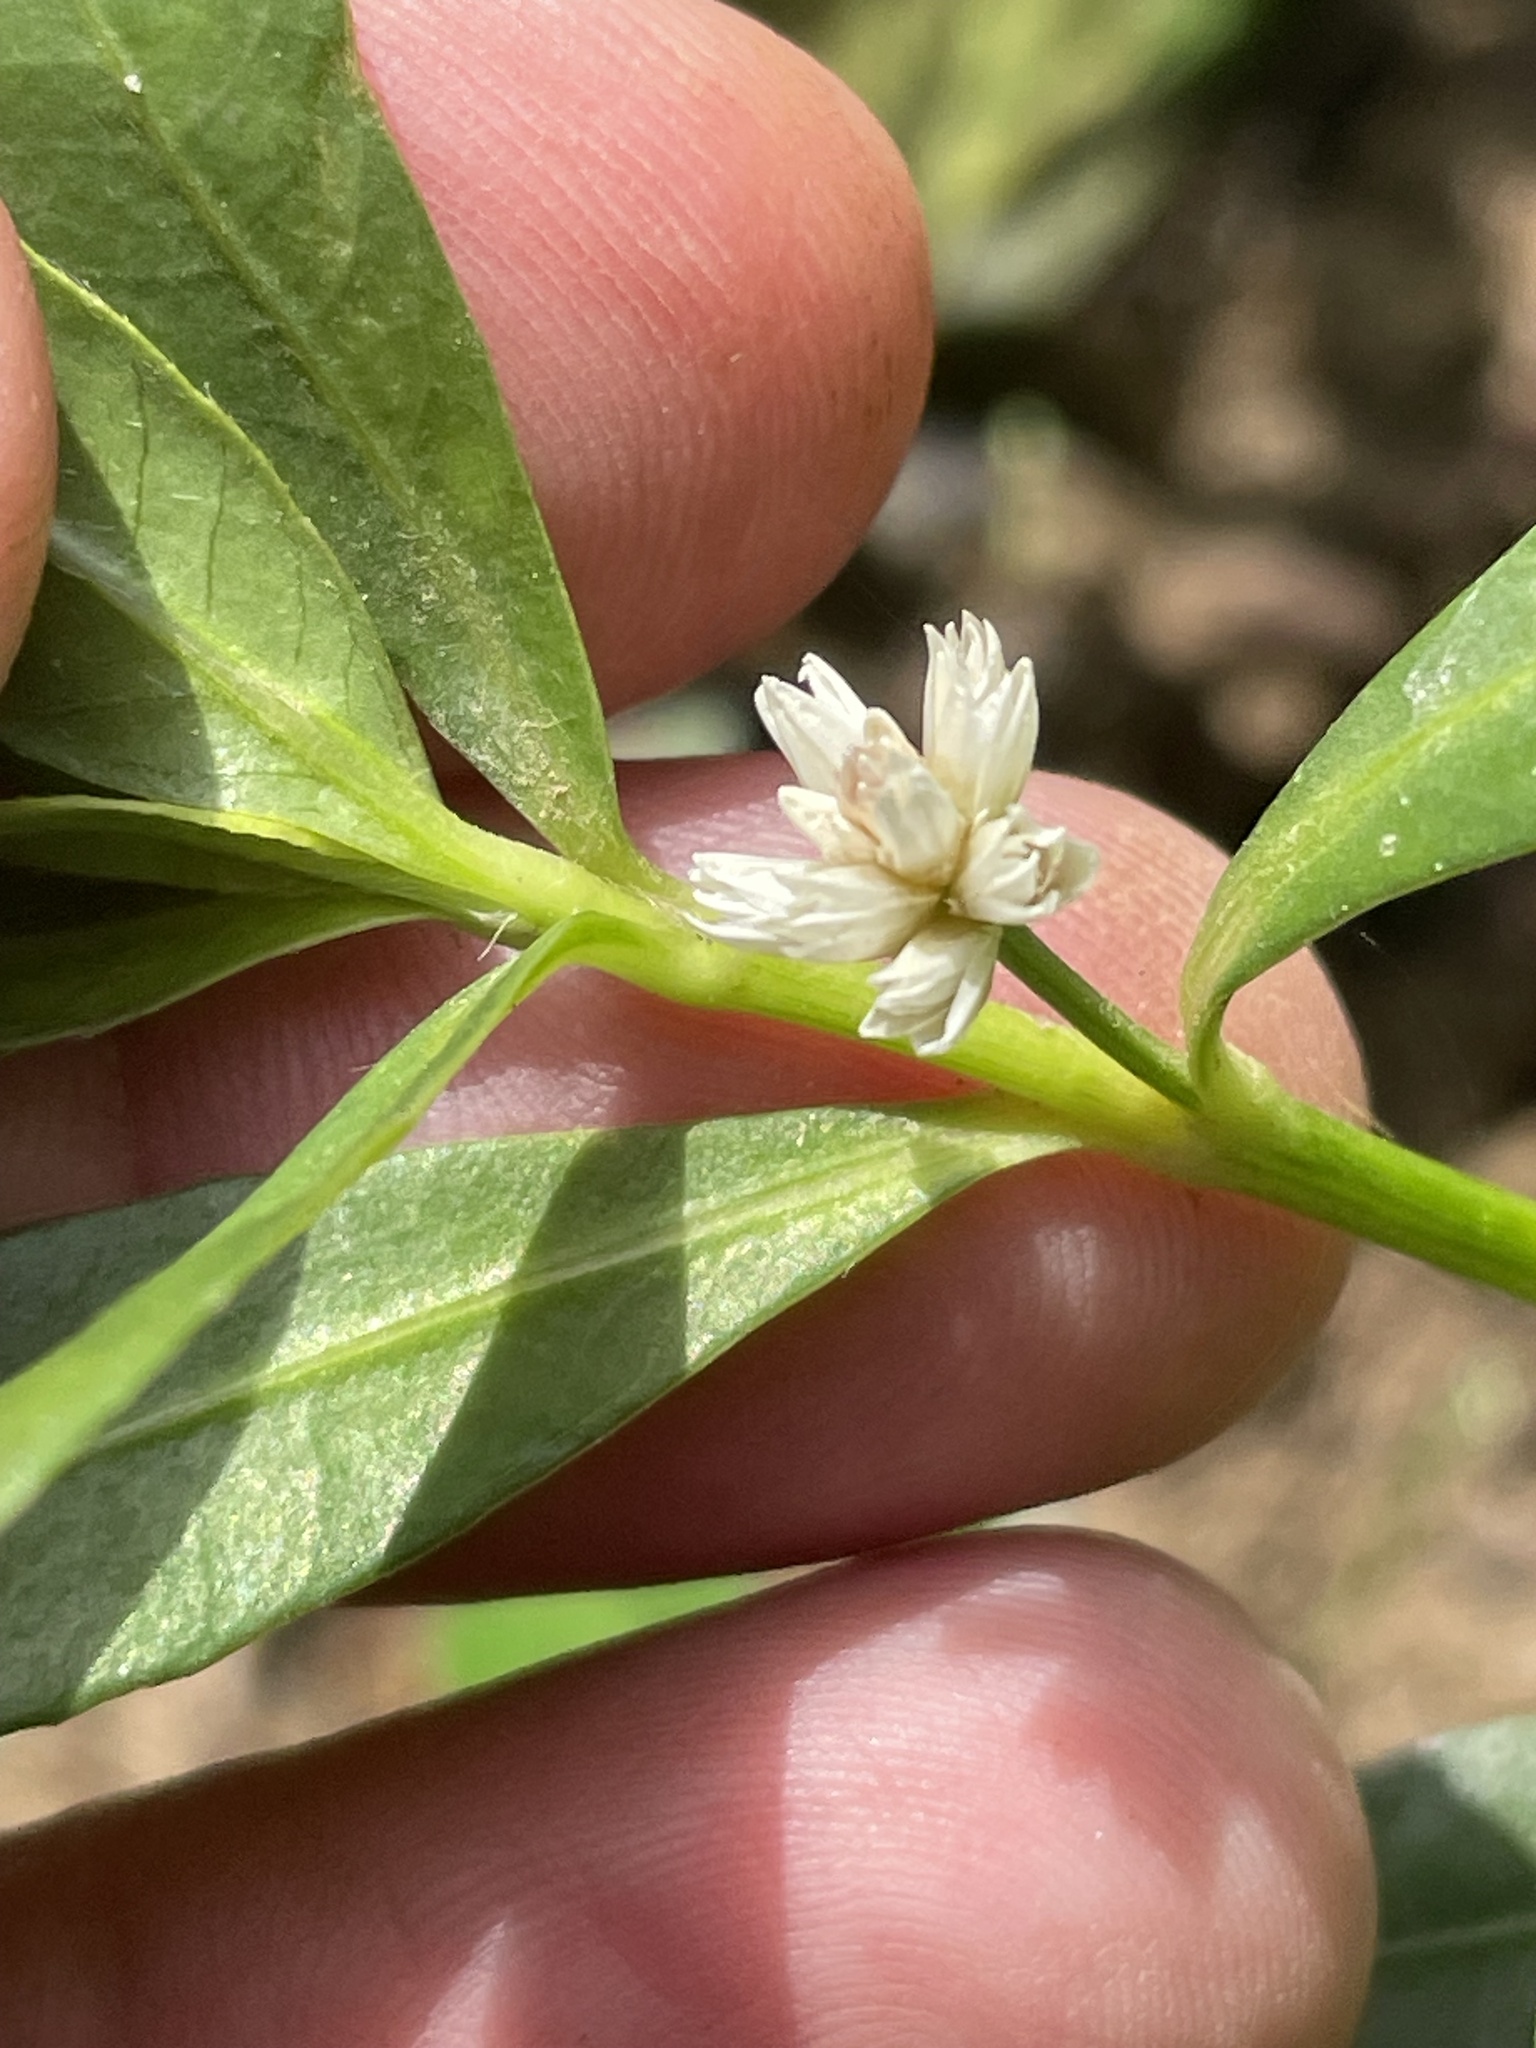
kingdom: Plantae
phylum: Tracheophyta
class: Magnoliopsida
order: Caryophyllales
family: Amaranthaceae
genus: Alternanthera
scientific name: Alternanthera philoxeroides
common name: Alligatorweed
